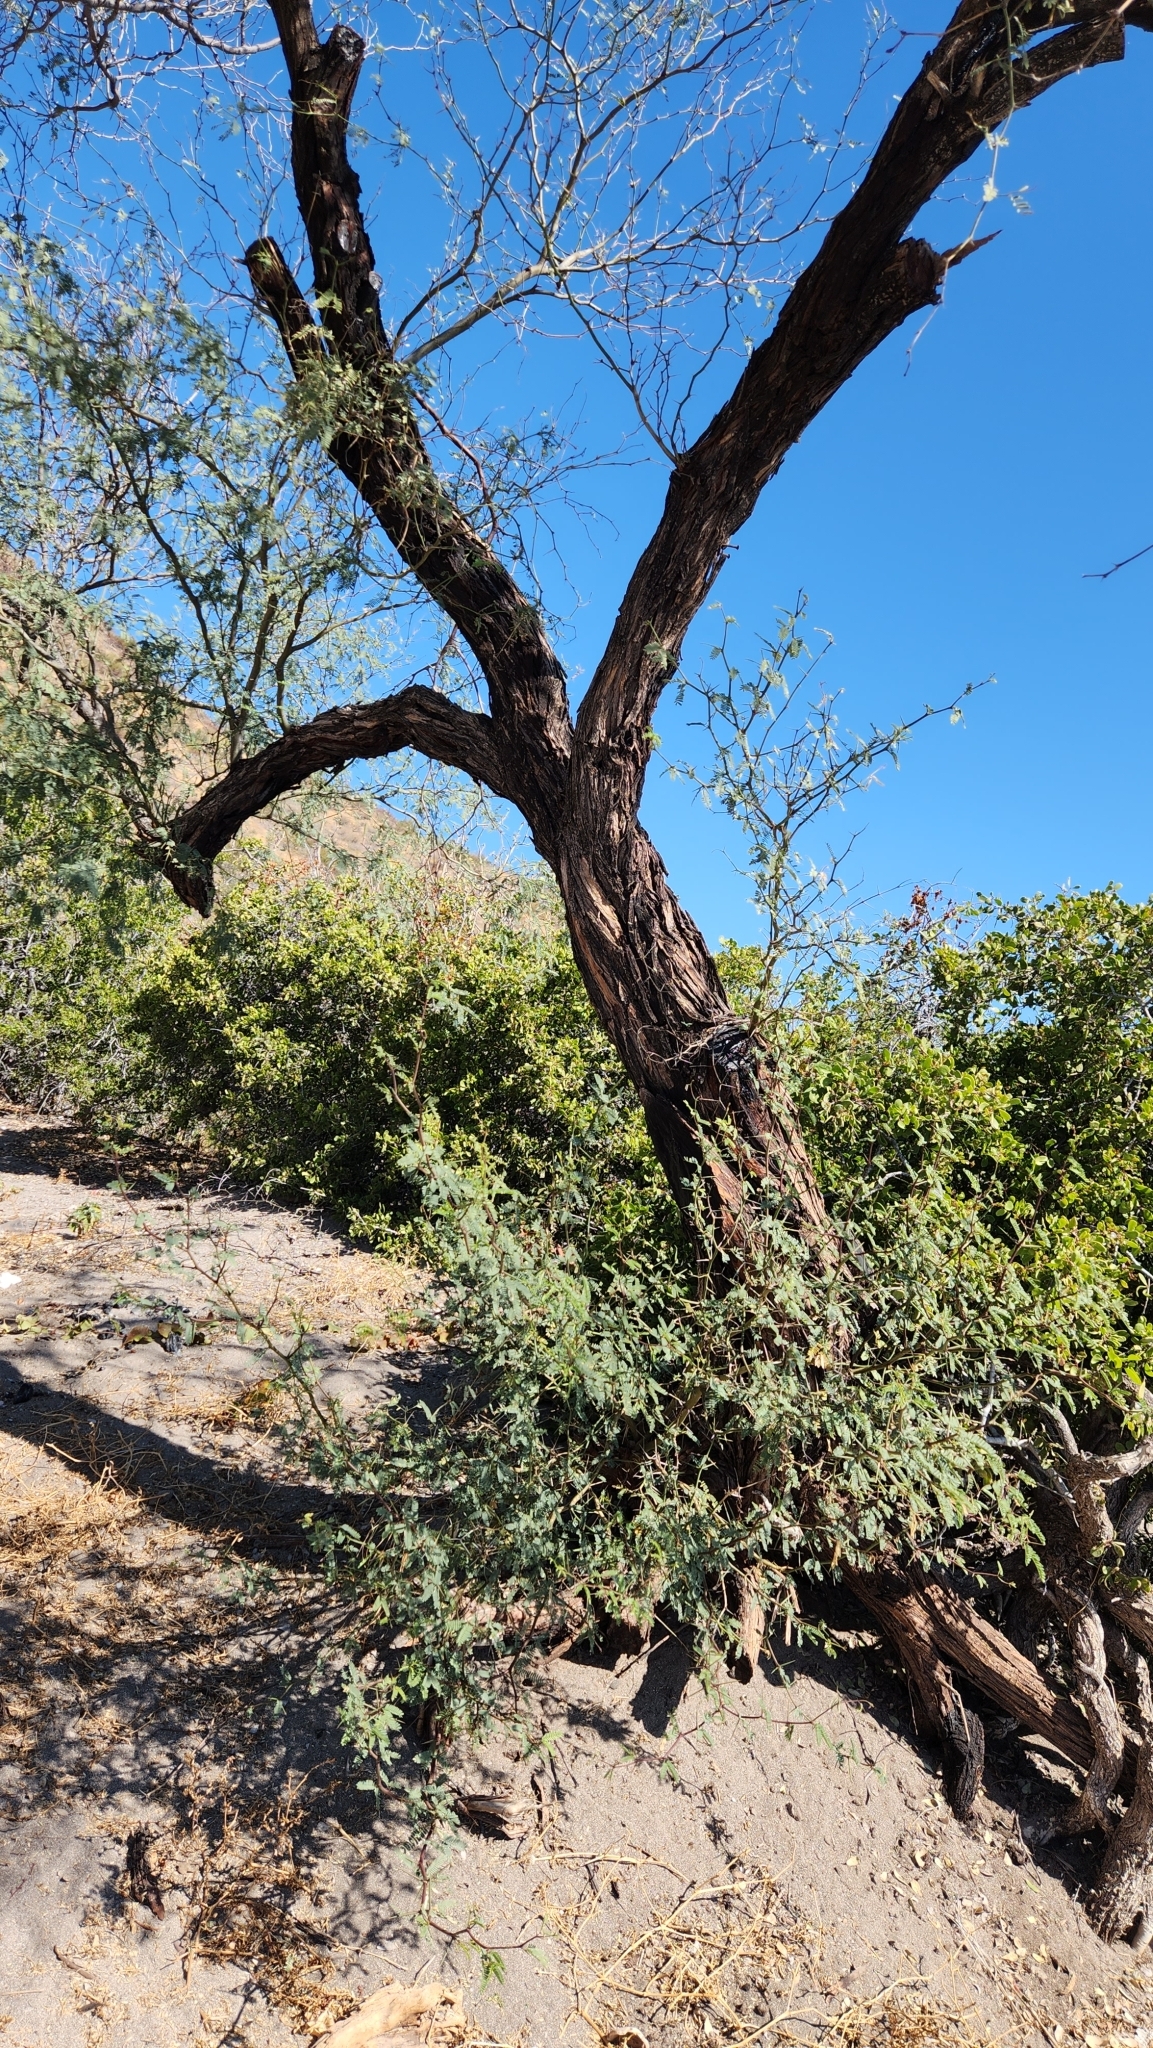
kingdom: Plantae
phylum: Tracheophyta
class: Magnoliopsida
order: Fabales
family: Fabaceae
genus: Prosopis
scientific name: Prosopis articulata
